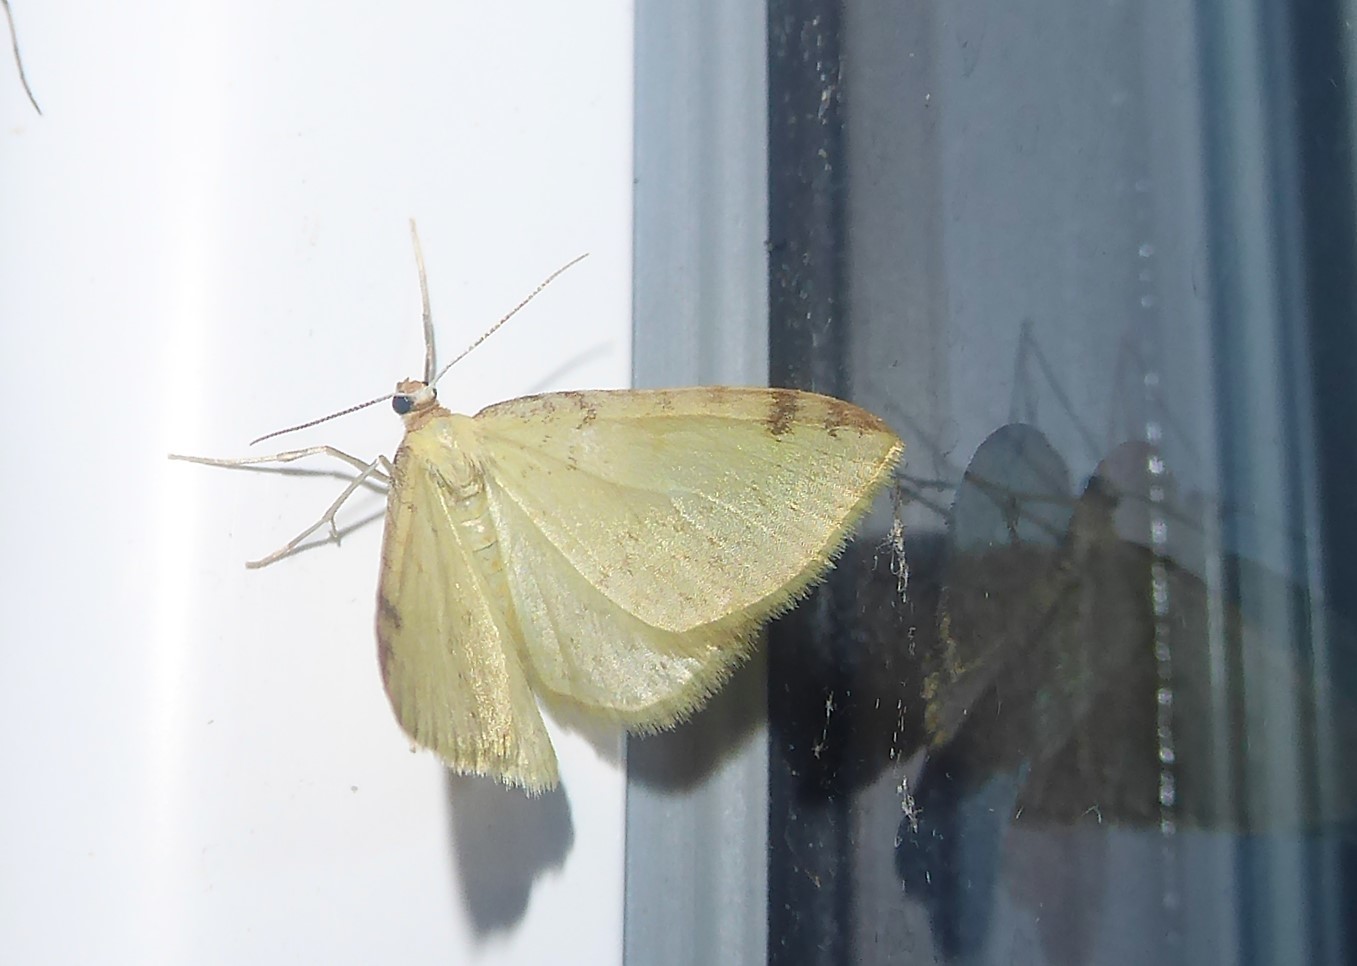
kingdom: Animalia
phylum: Arthropoda
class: Insecta
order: Lepidoptera
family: Geometridae
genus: Epiphryne
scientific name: Epiphryne undosata
